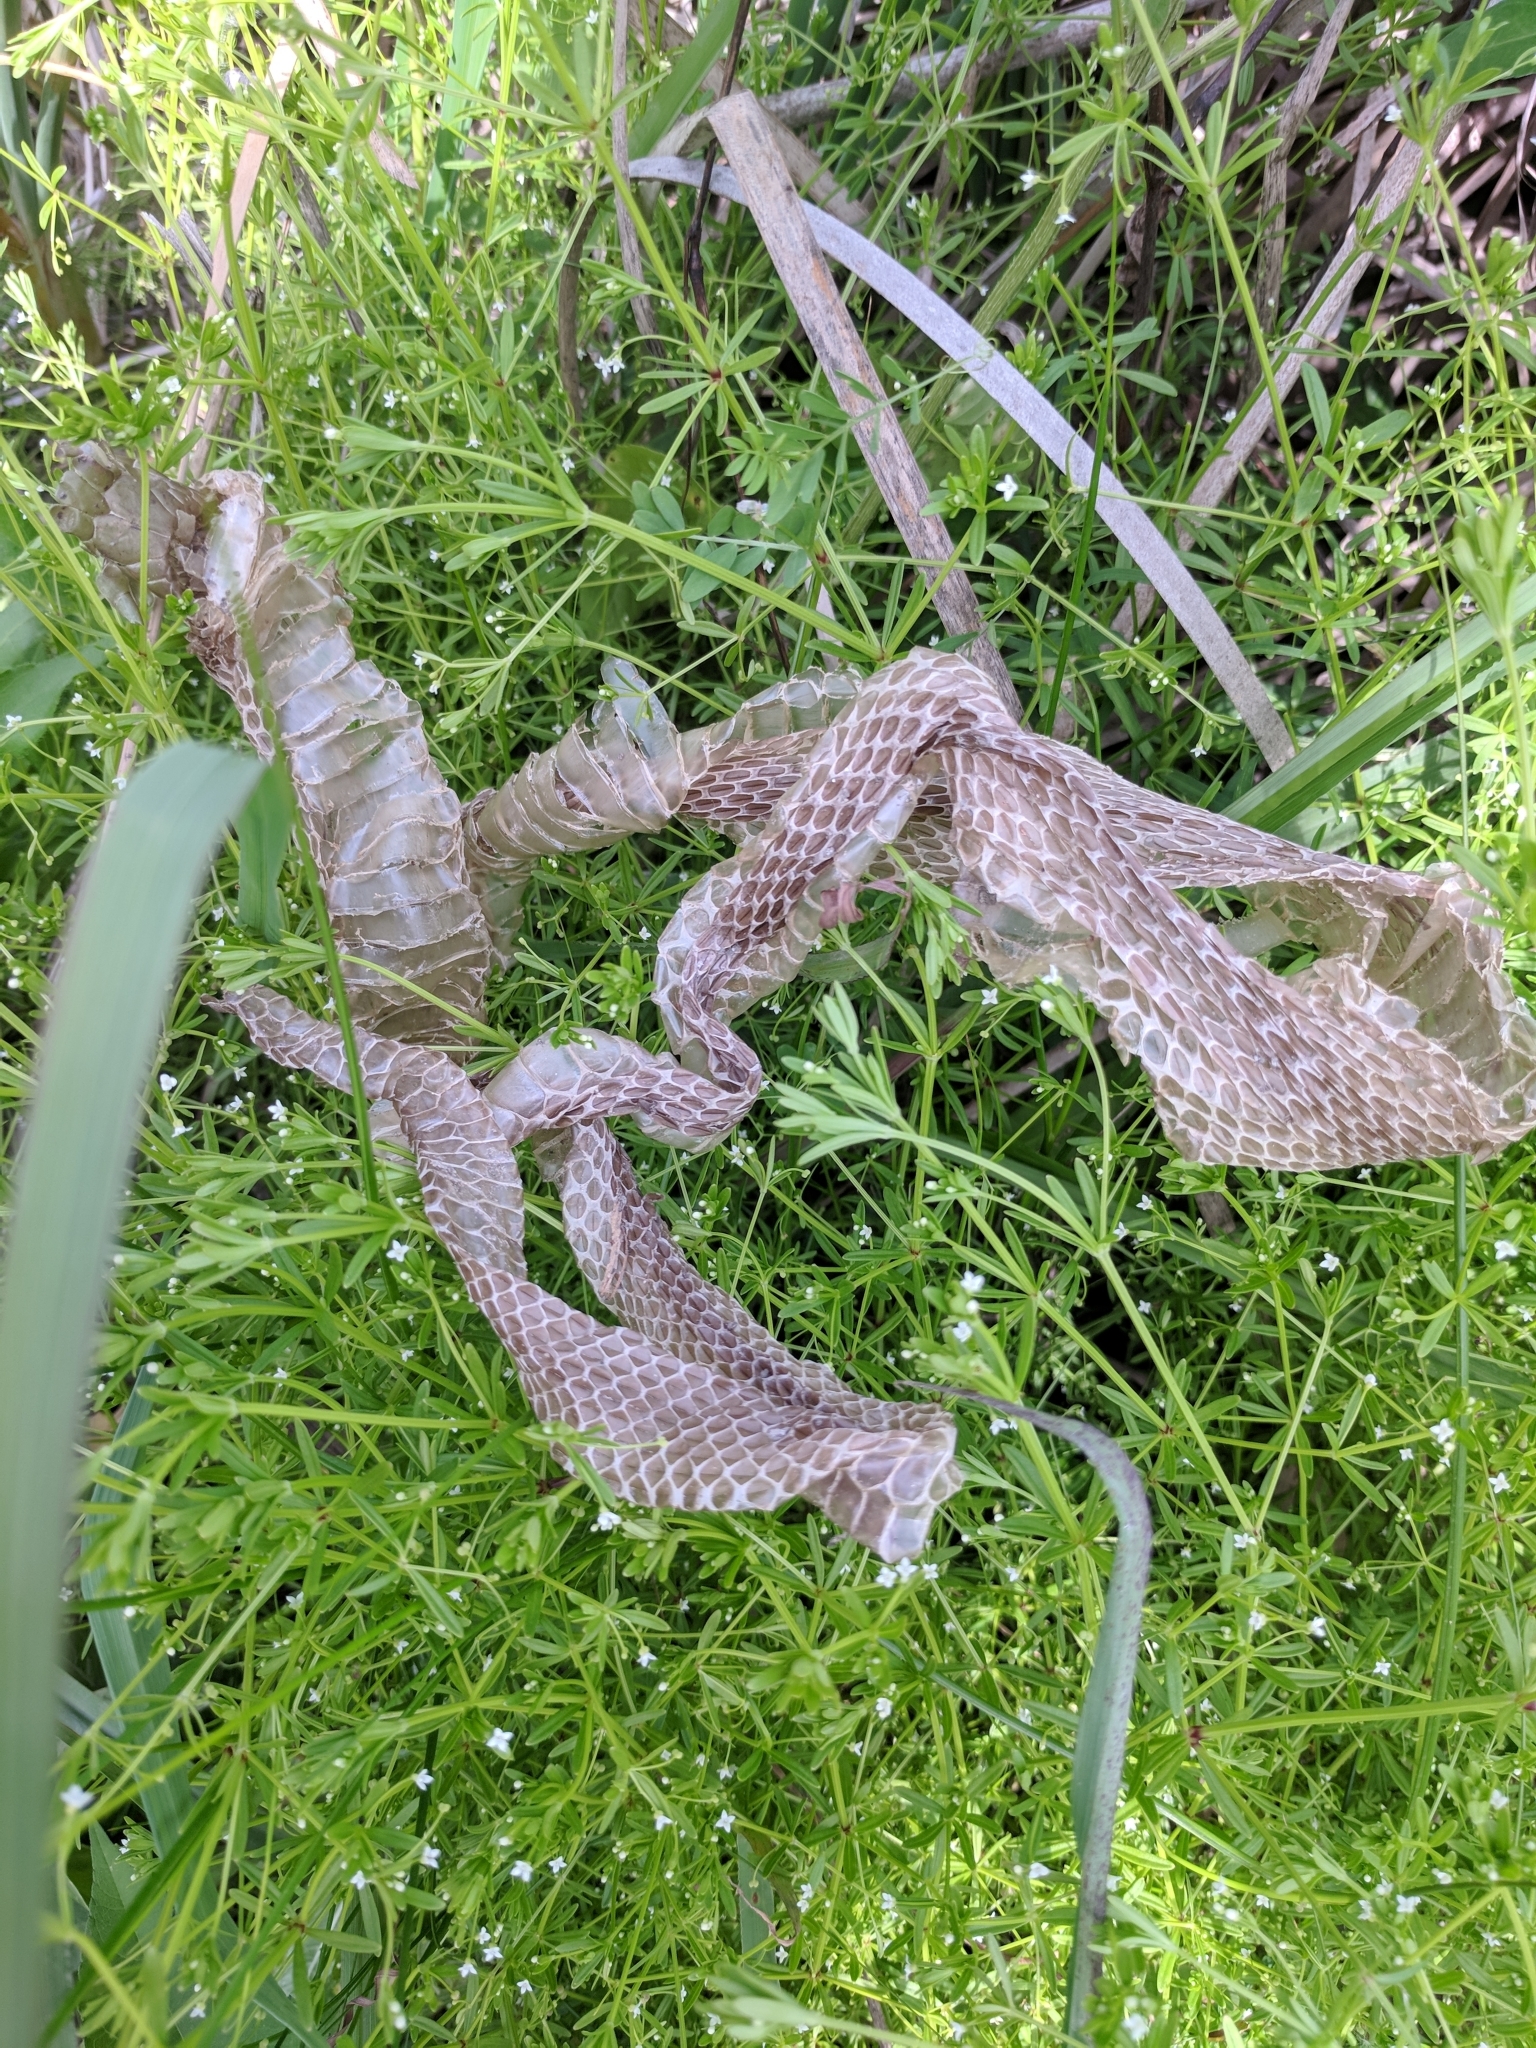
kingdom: Animalia
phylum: Chordata
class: Squamata
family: Colubridae
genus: Nerodia
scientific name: Nerodia
